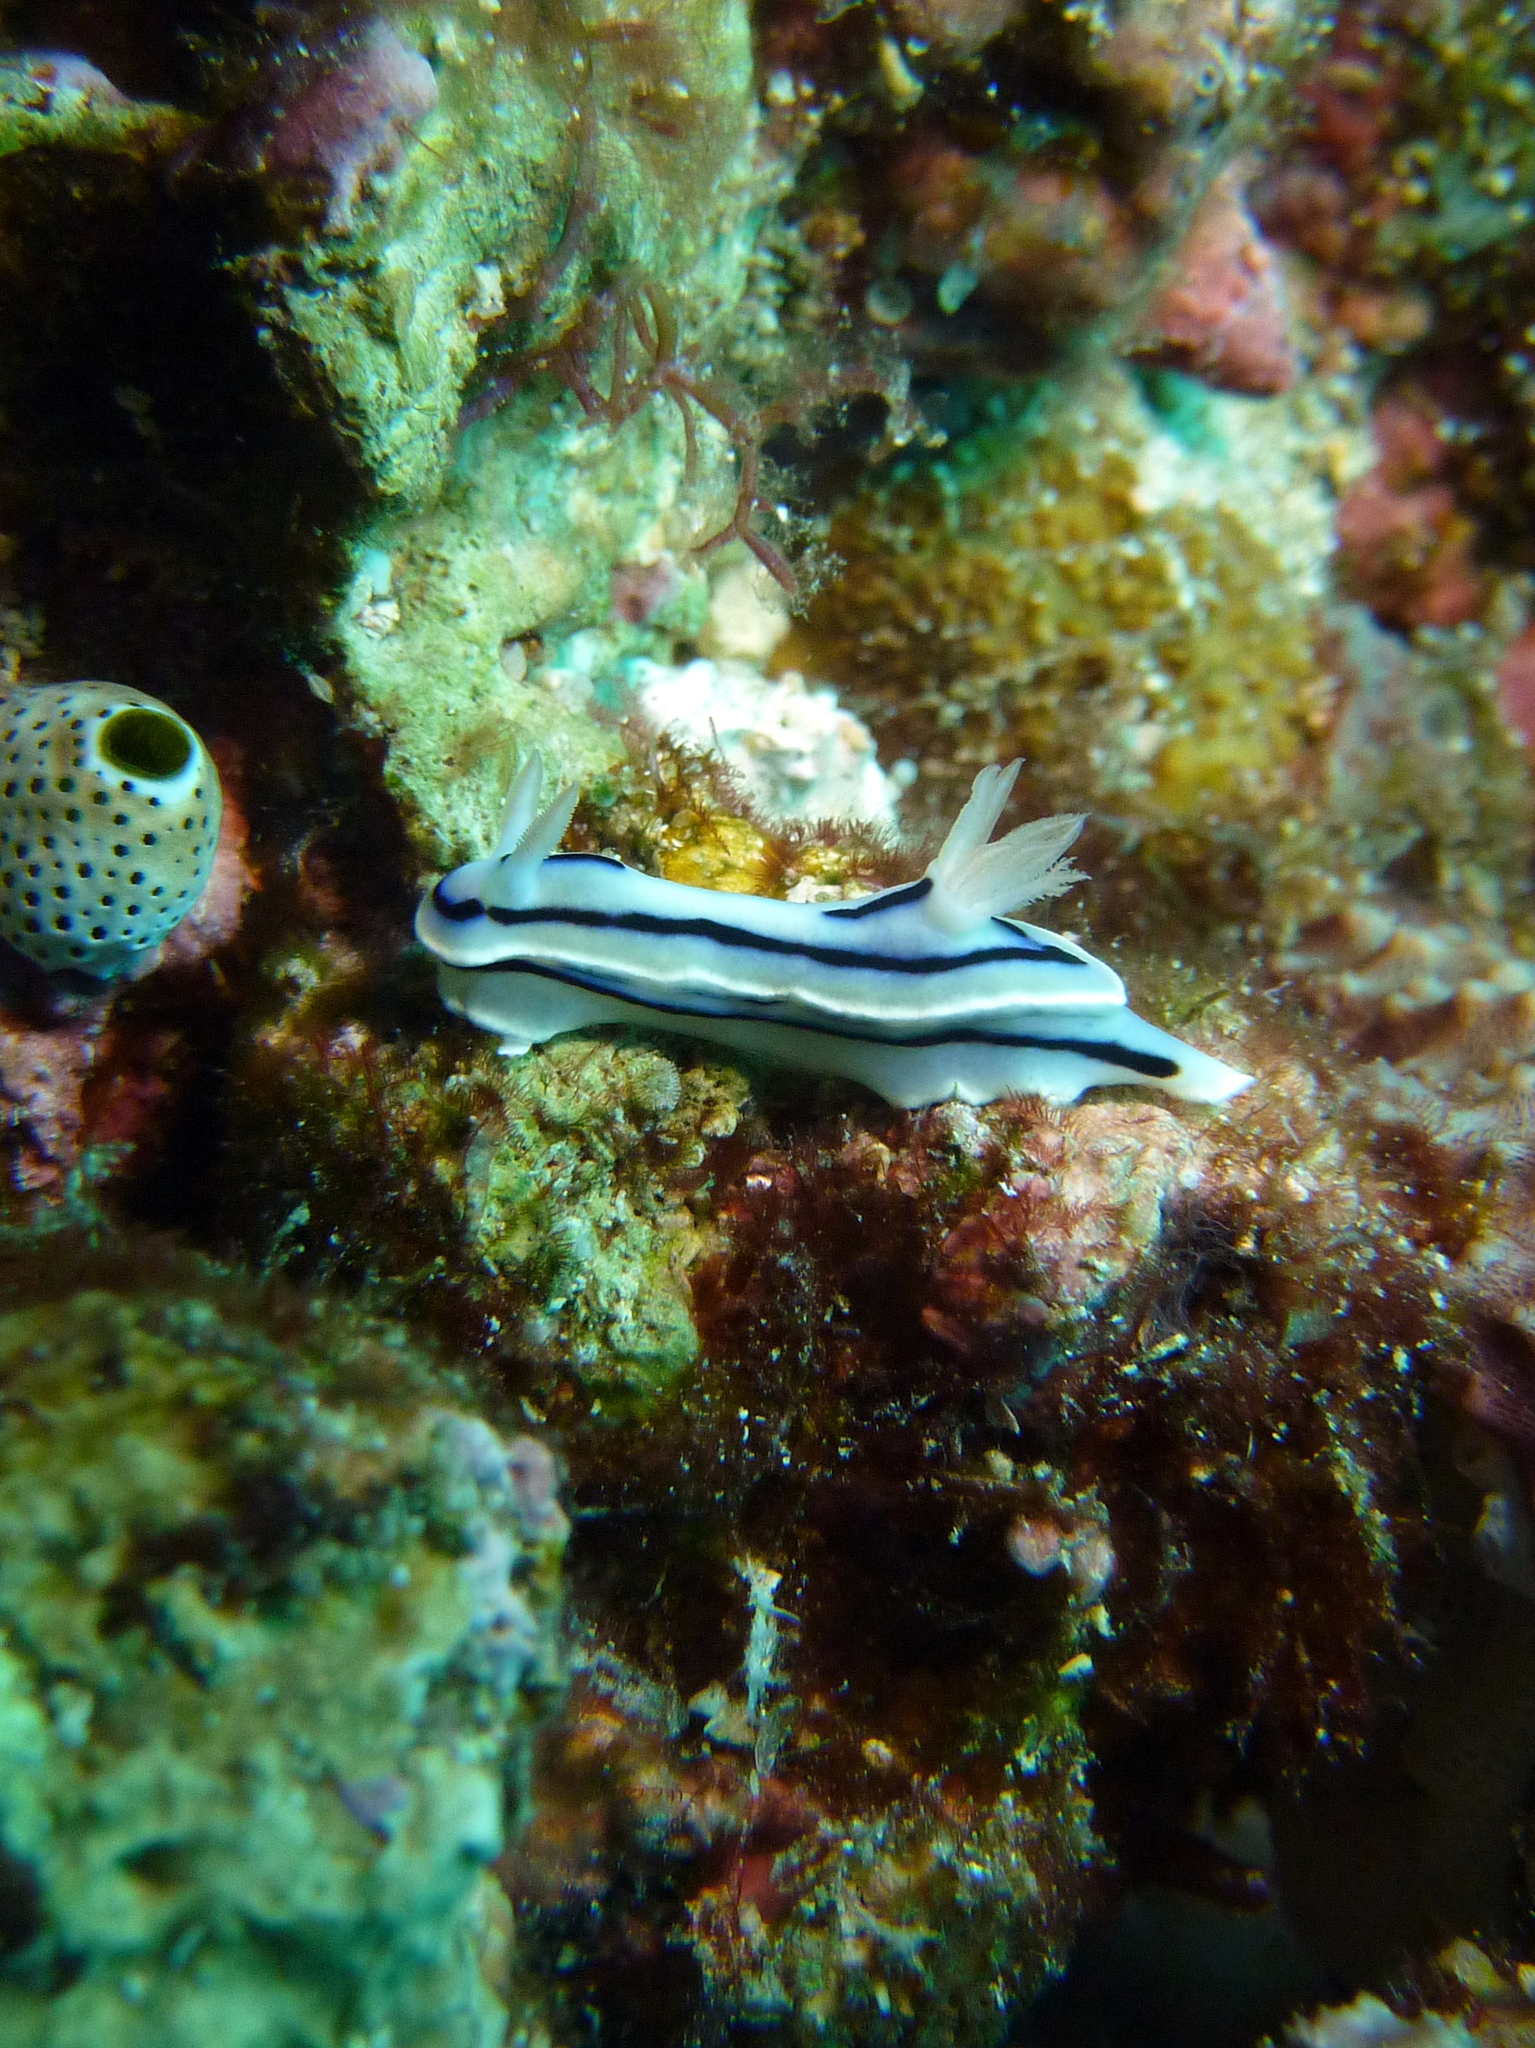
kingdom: Animalia
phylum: Mollusca
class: Gastropoda
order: Nudibranchia
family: Chromodorididae
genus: Chromodoris
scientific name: Chromodoris lochi
